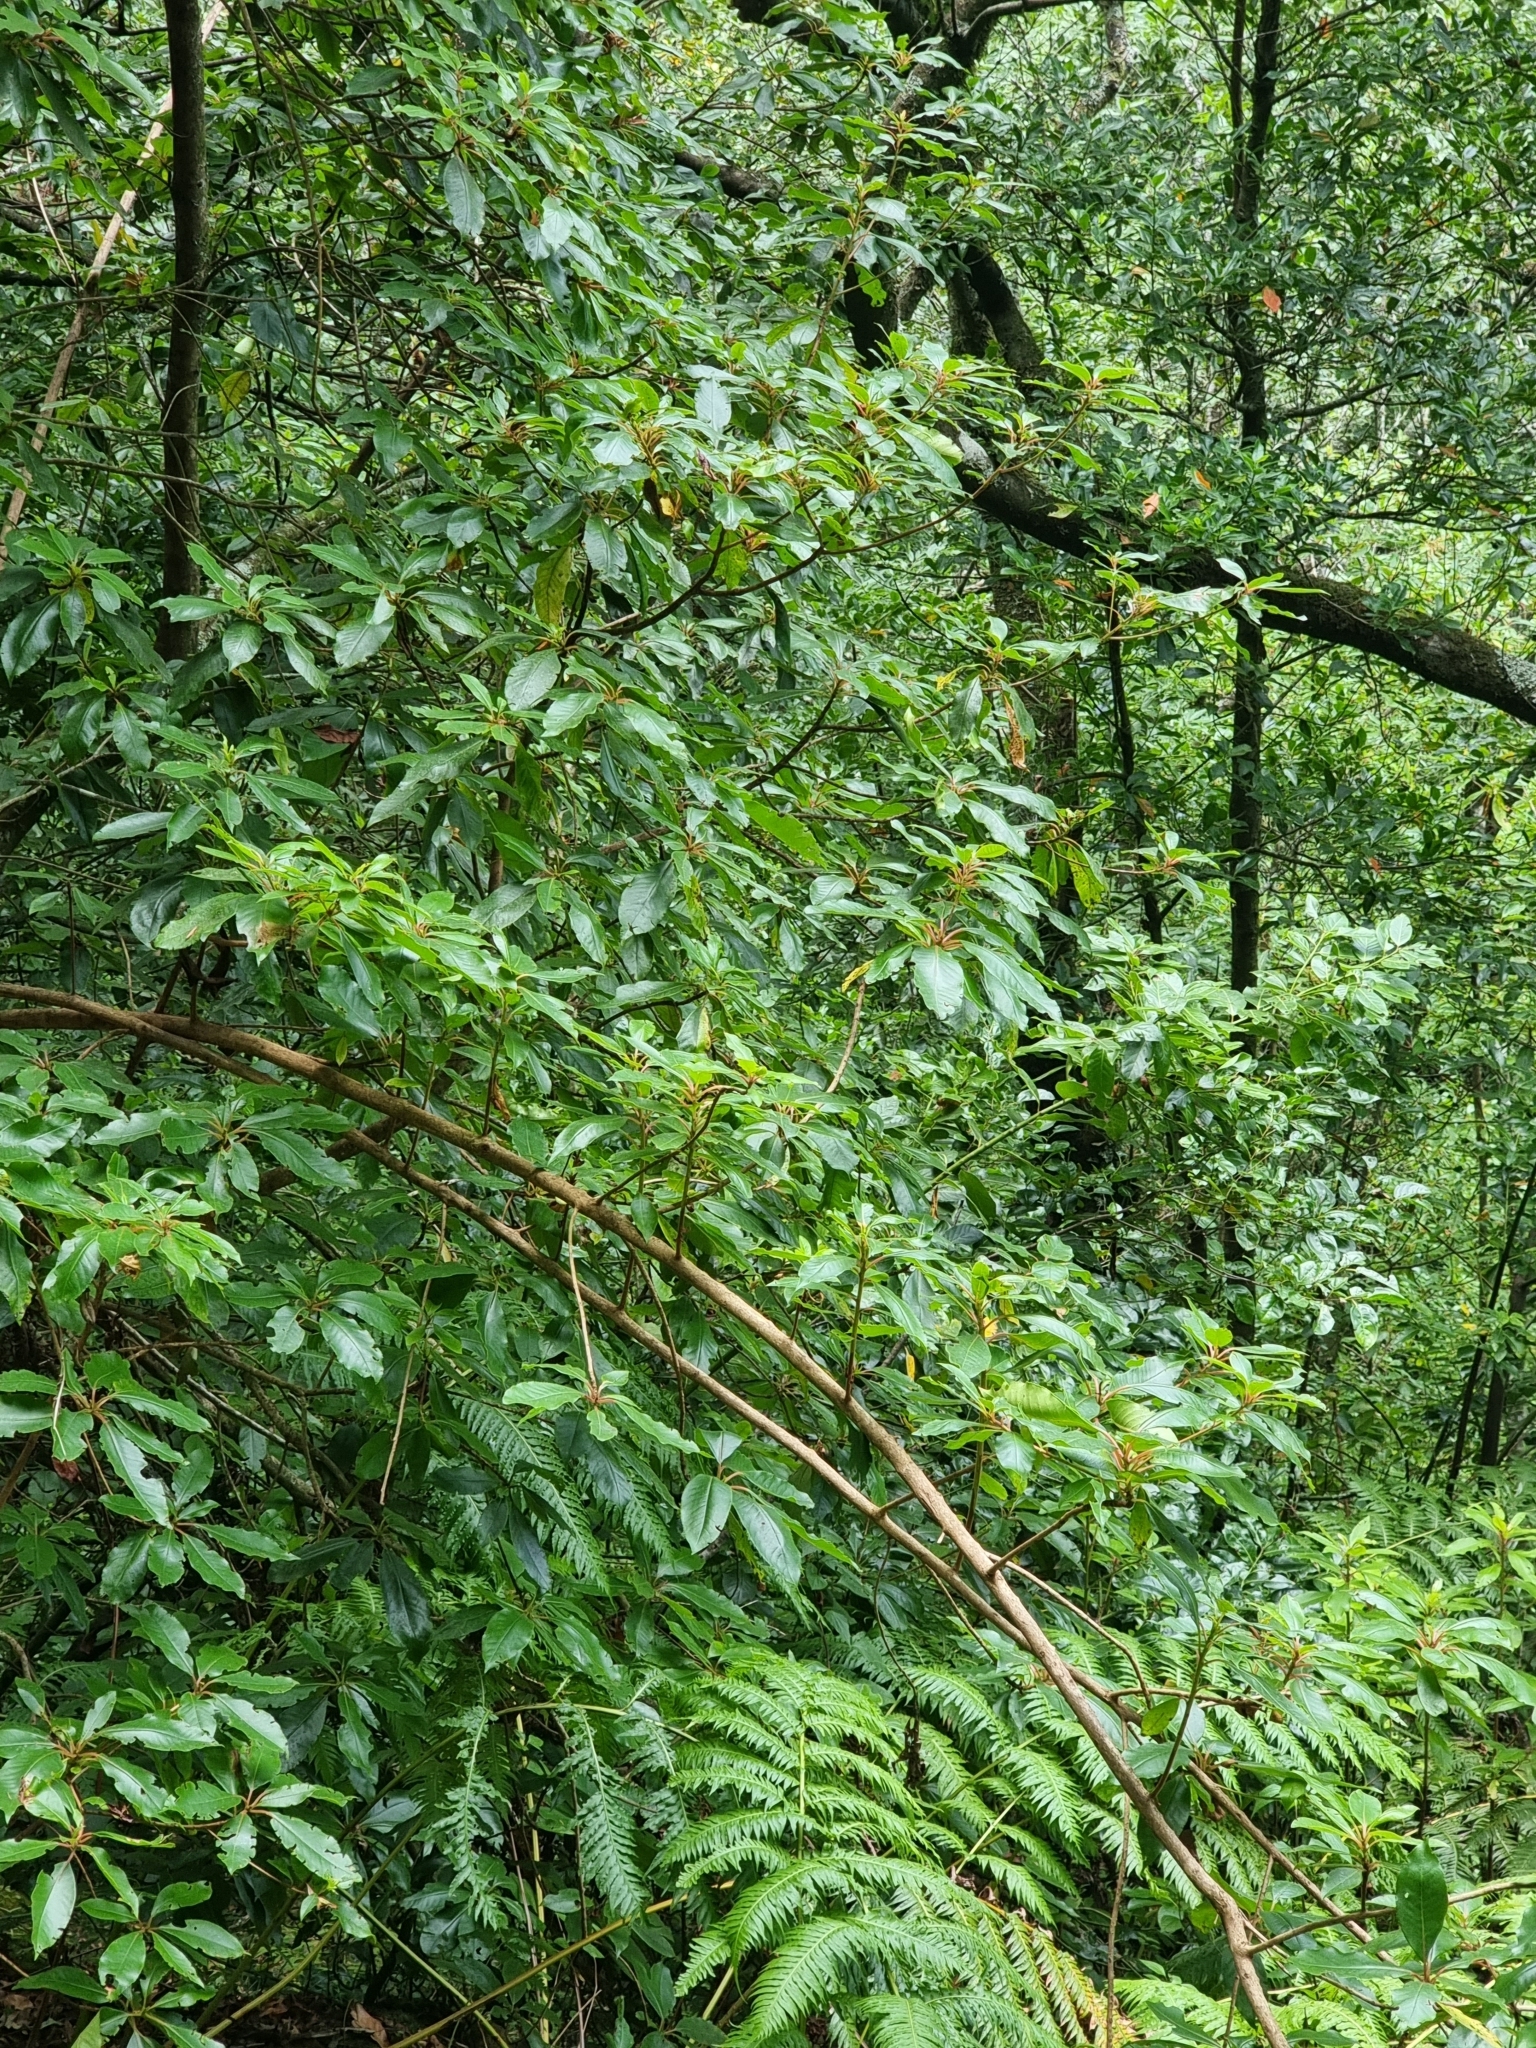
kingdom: Plantae
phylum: Tracheophyta
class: Magnoliopsida
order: Ericales
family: Clethraceae
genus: Clethra
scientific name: Clethra arborea
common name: Lily-of-the-valley-tree
